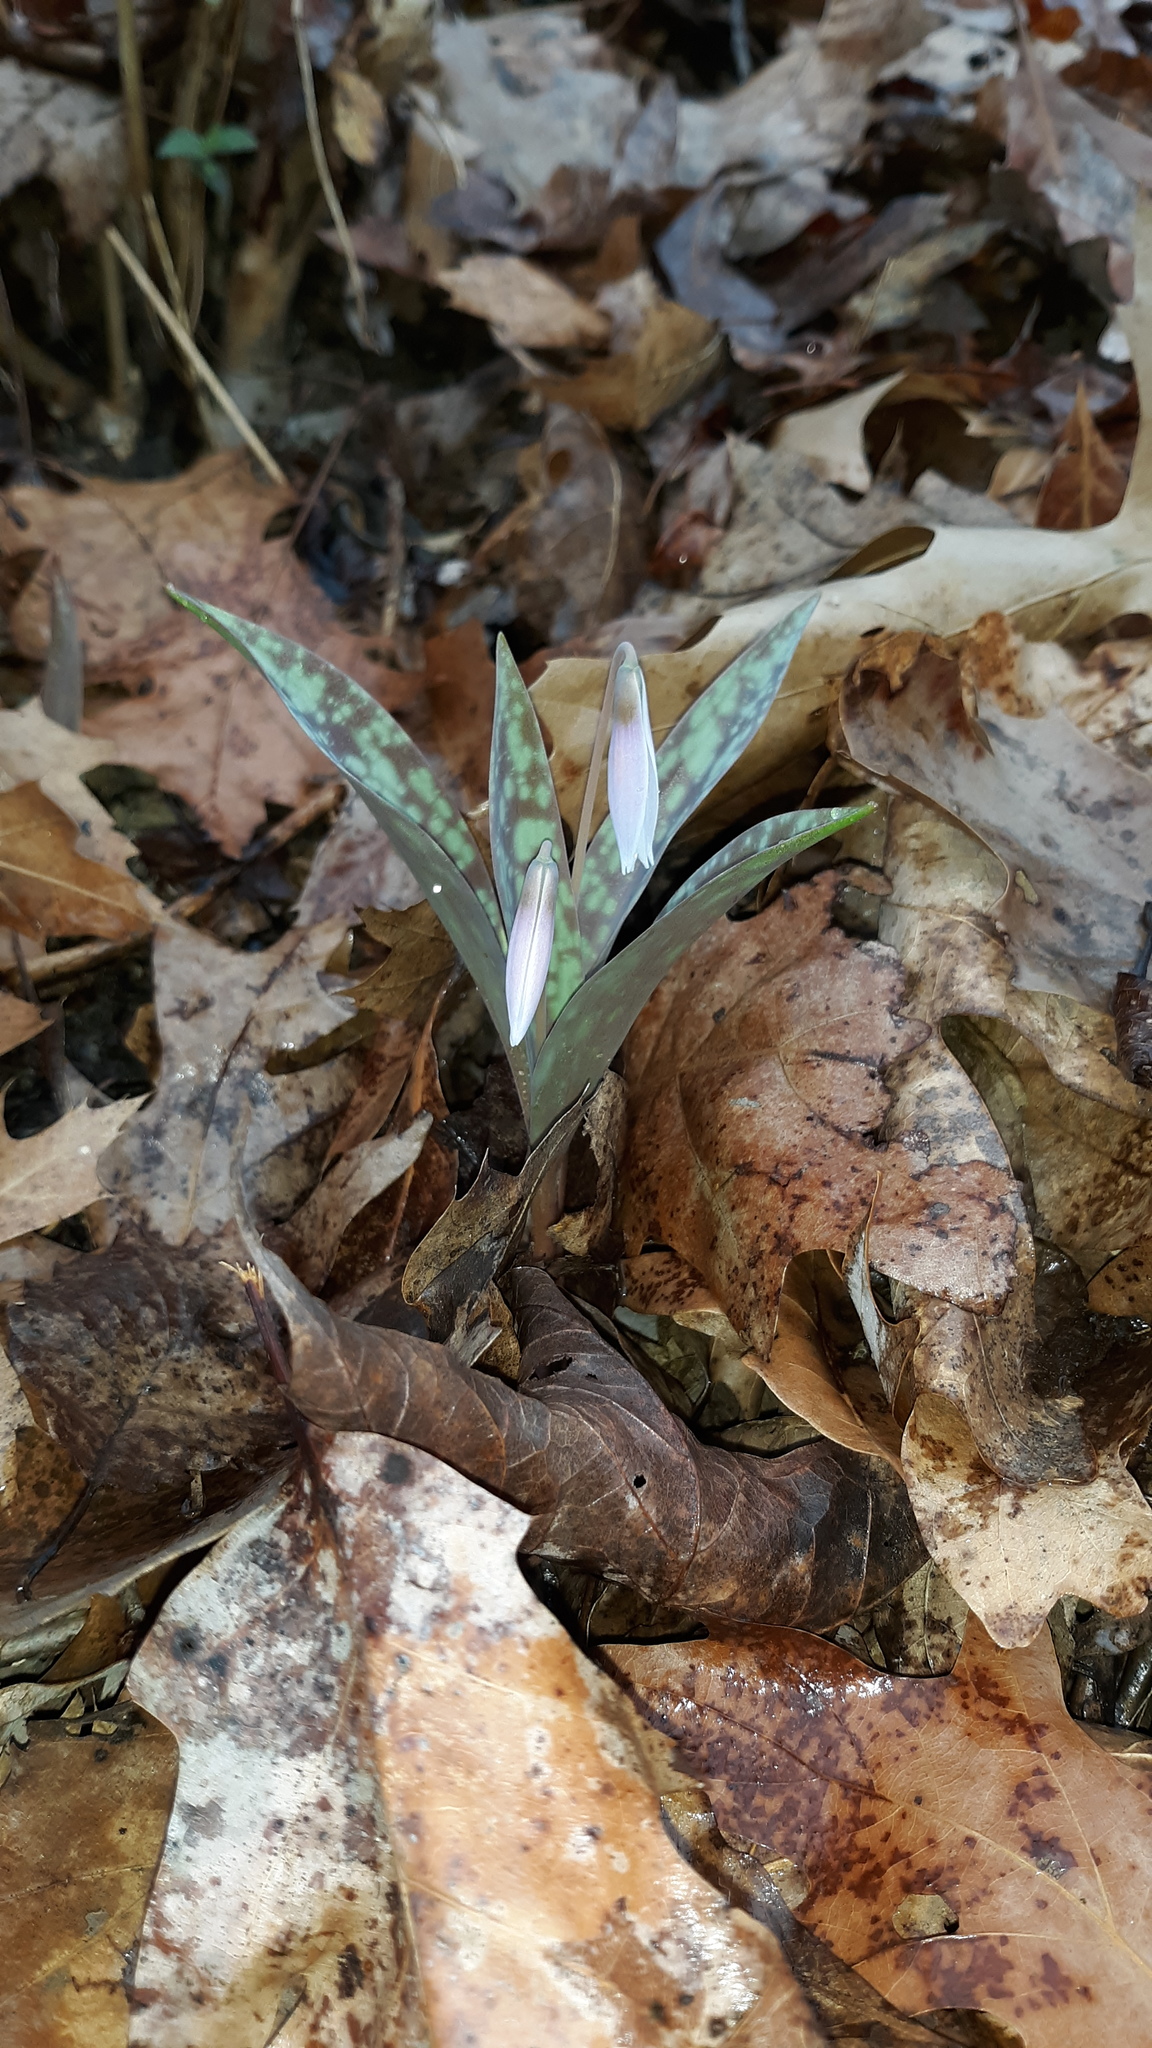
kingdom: Plantae
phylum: Tracheophyta
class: Liliopsida
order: Liliales
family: Liliaceae
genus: Erythronium
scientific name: Erythronium albidum
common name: White trout-lily
